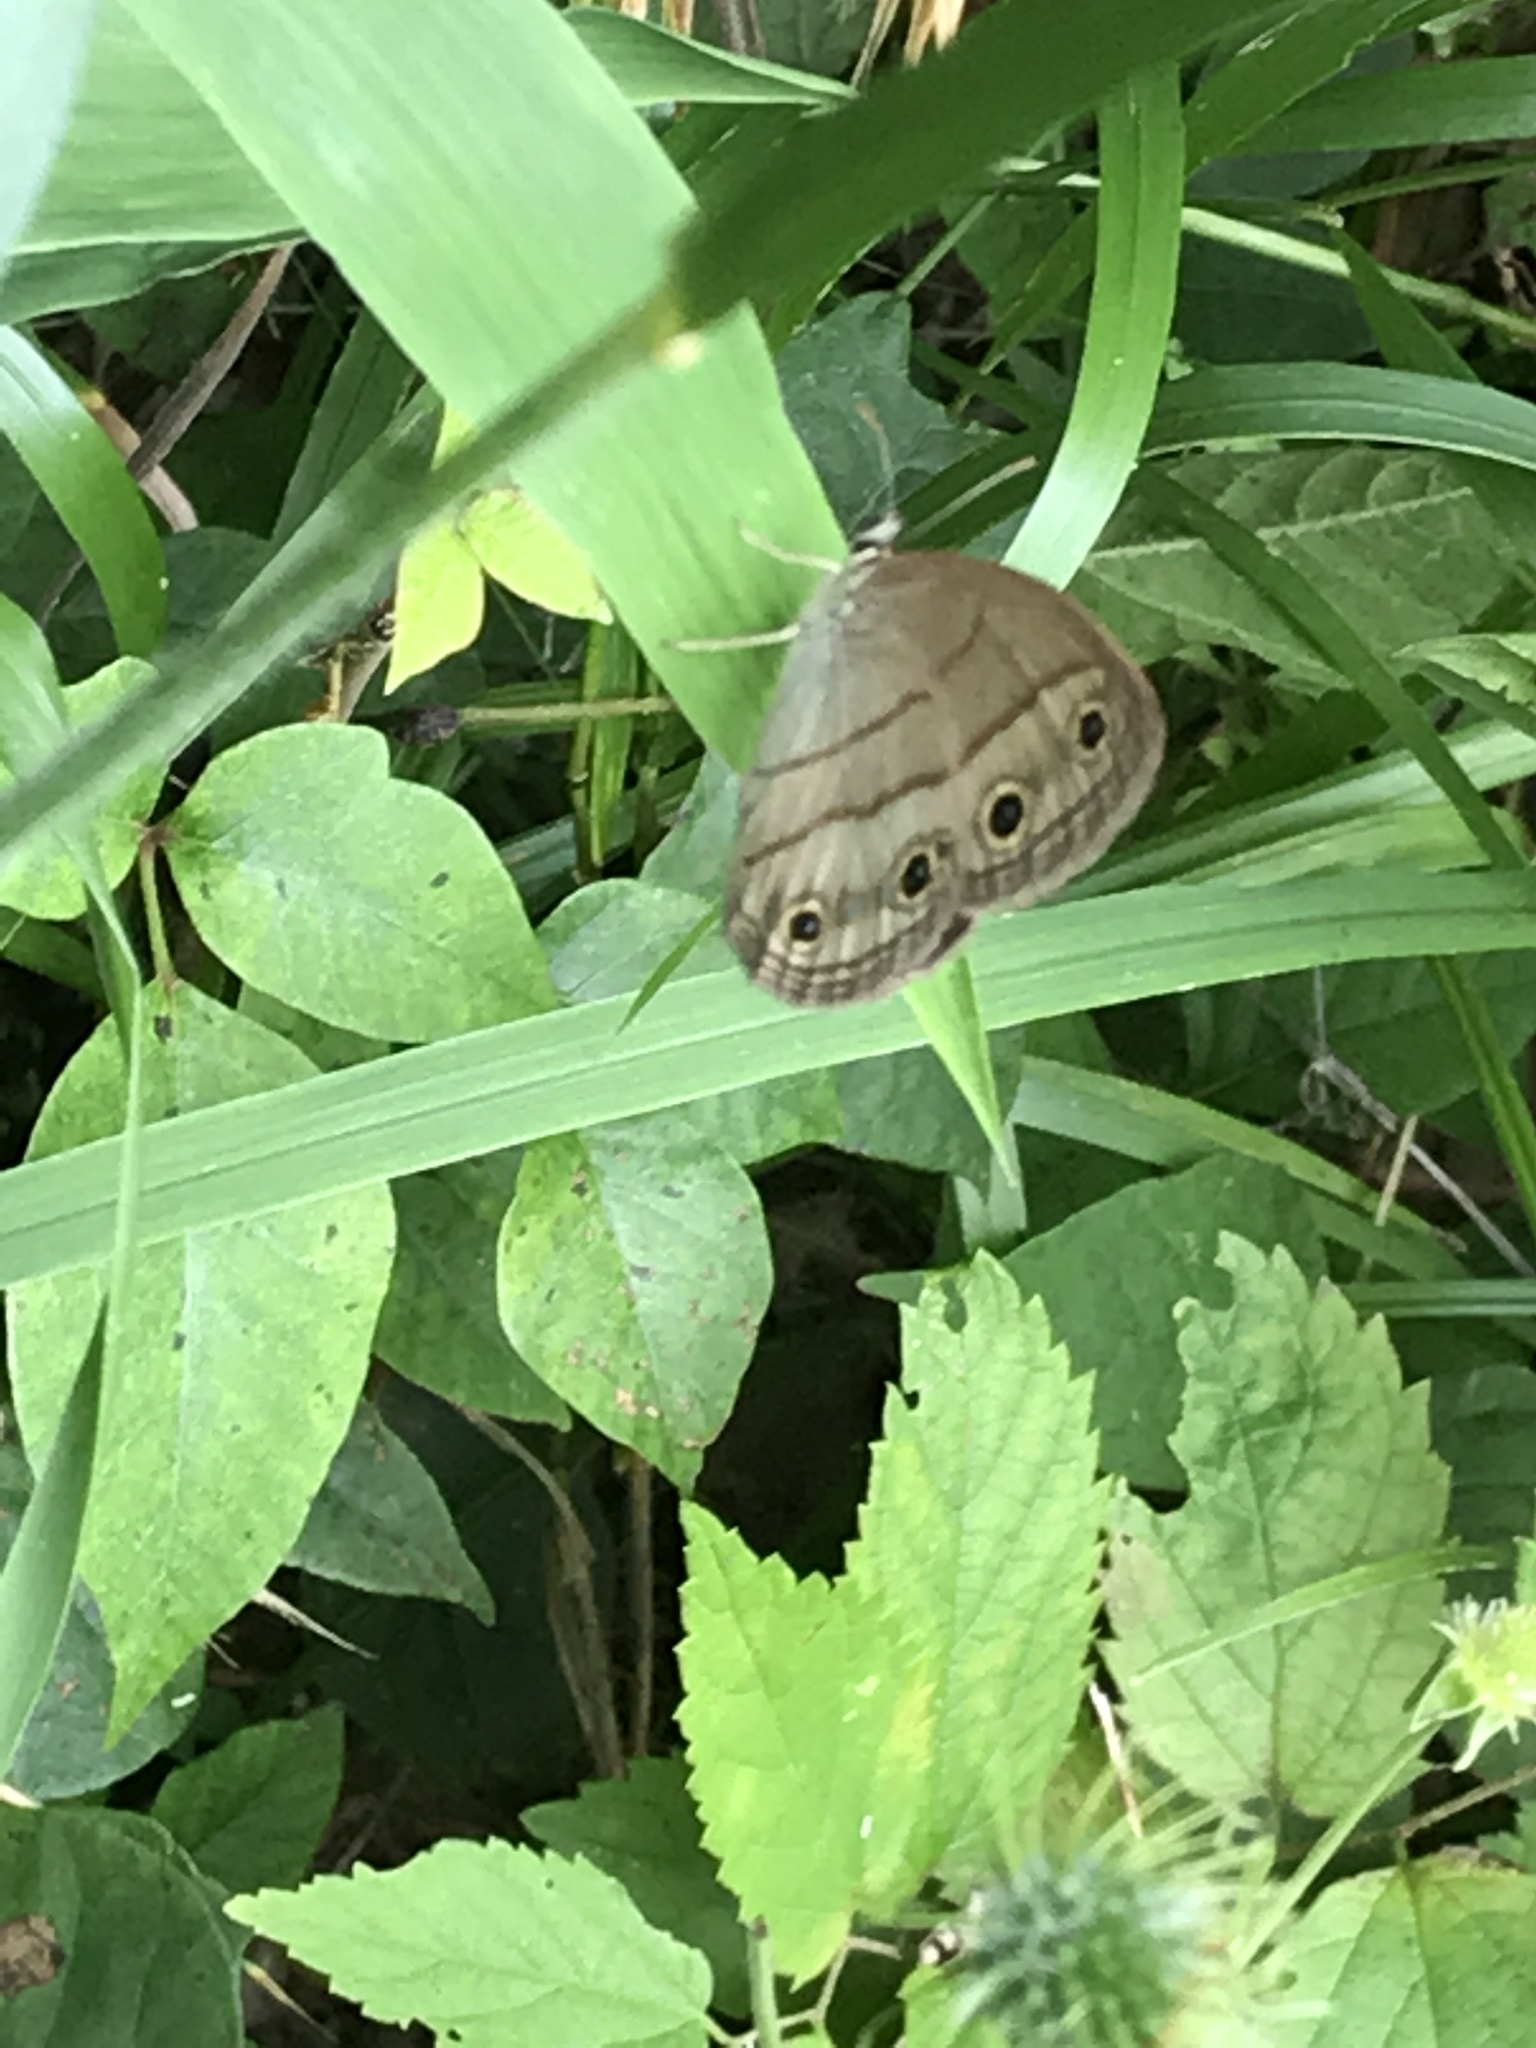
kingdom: Animalia
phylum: Arthropoda
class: Insecta
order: Lepidoptera
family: Nymphalidae
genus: Euptychia
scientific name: Euptychia cymela
